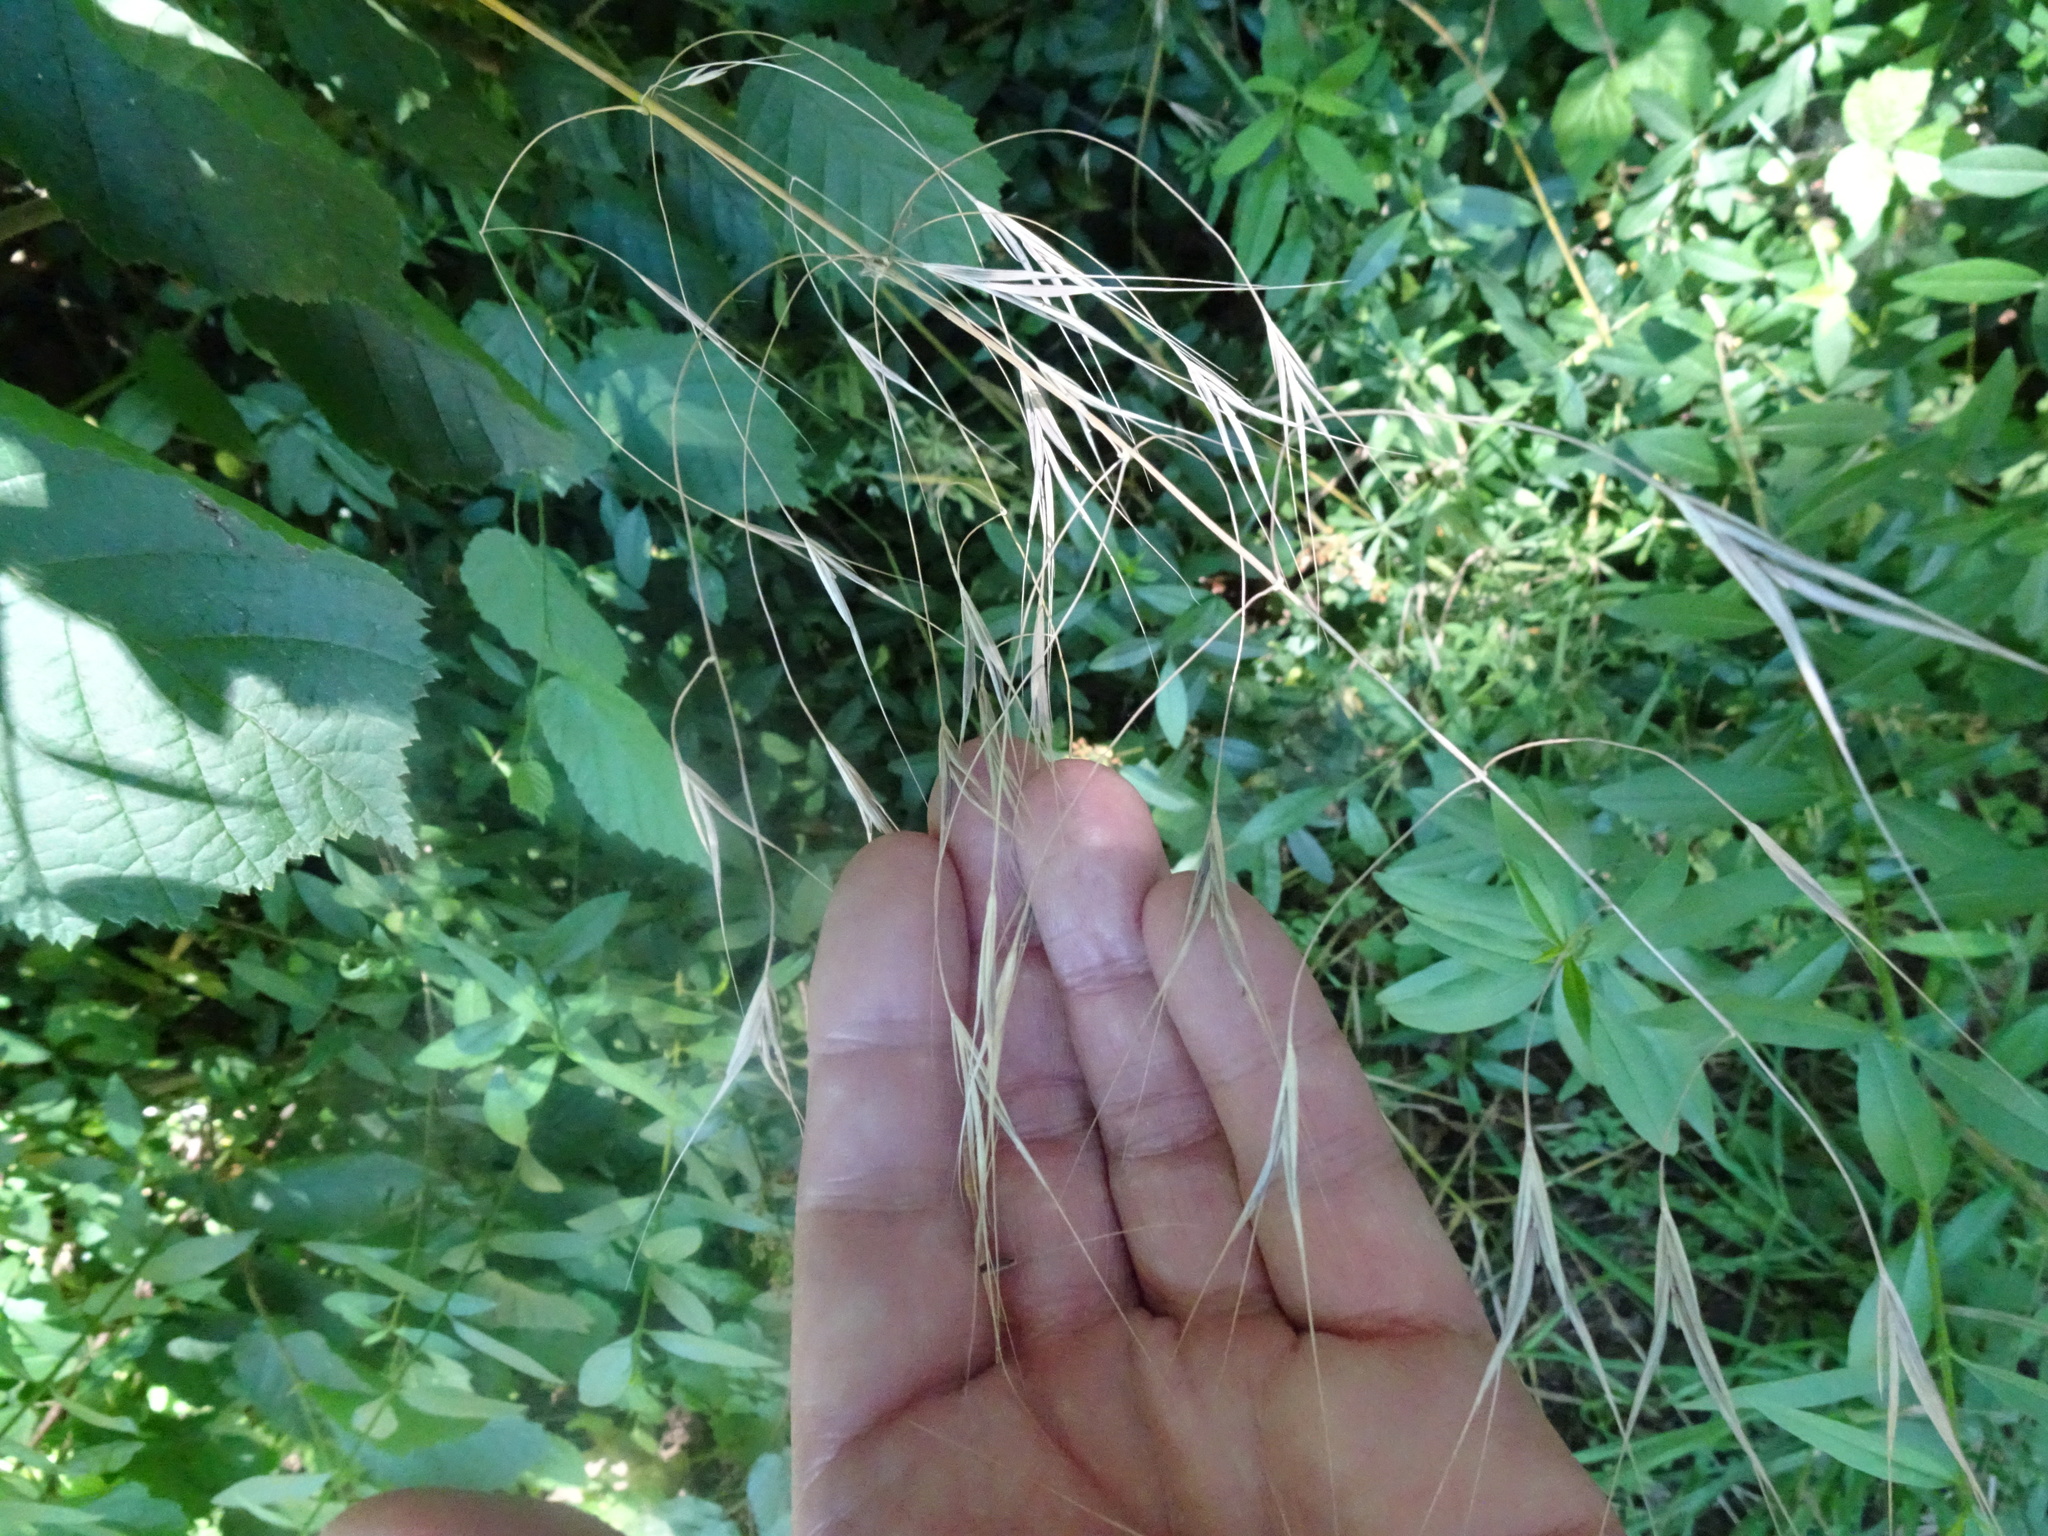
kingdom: Plantae
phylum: Tracheophyta
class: Liliopsida
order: Poales
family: Poaceae
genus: Bromus
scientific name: Bromus sterilis
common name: Poverty brome
